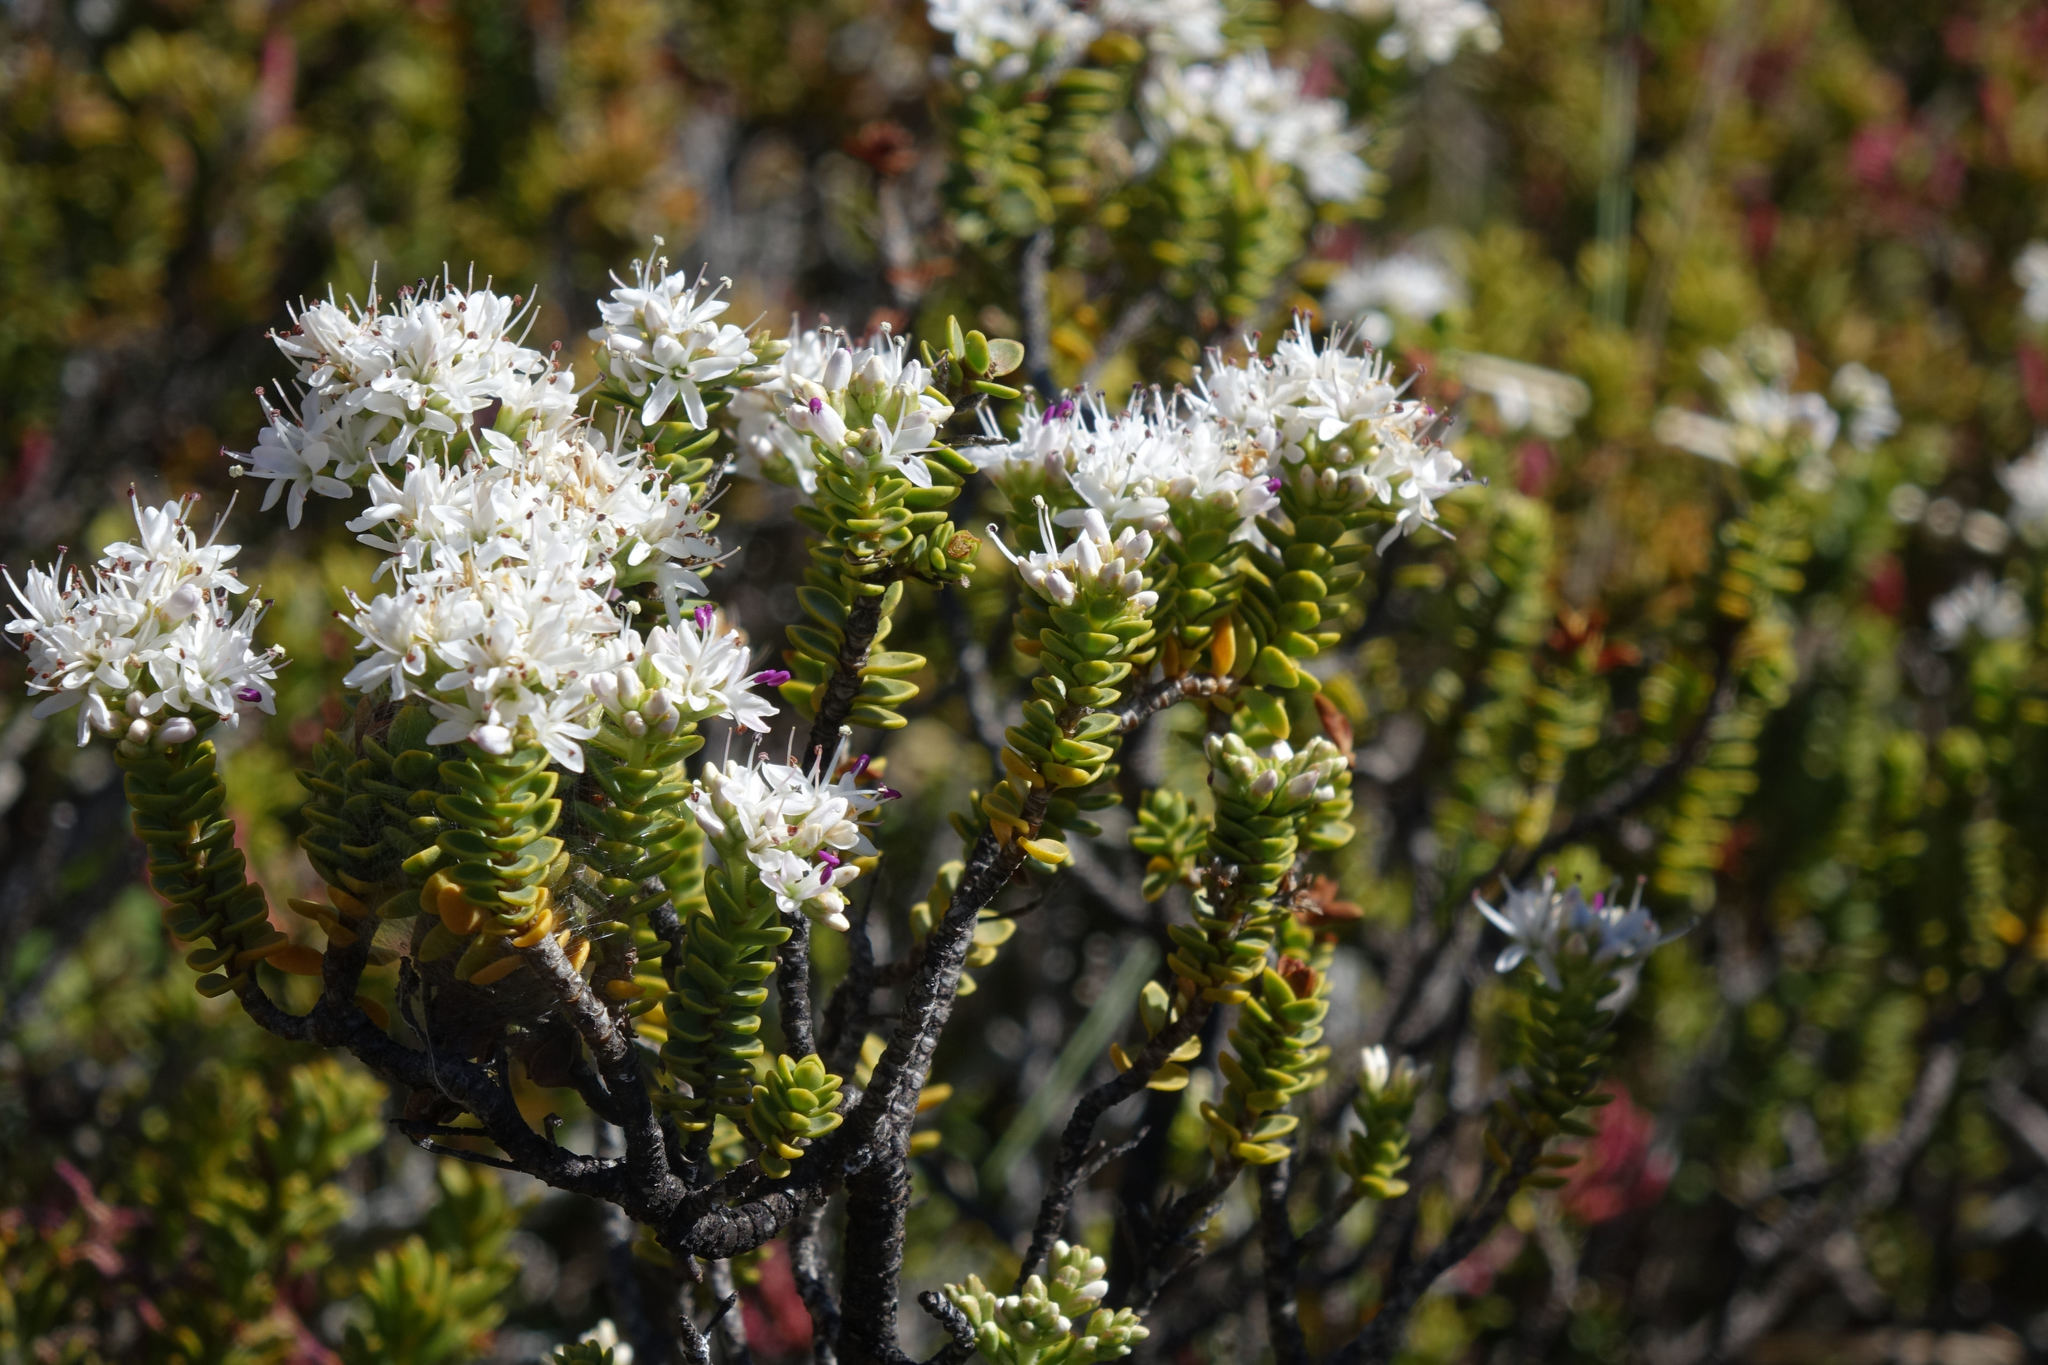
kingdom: Plantae
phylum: Tracheophyta
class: Magnoliopsida
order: Lamiales
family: Plantaginaceae
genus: Veronica
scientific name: Veronica buchananii
